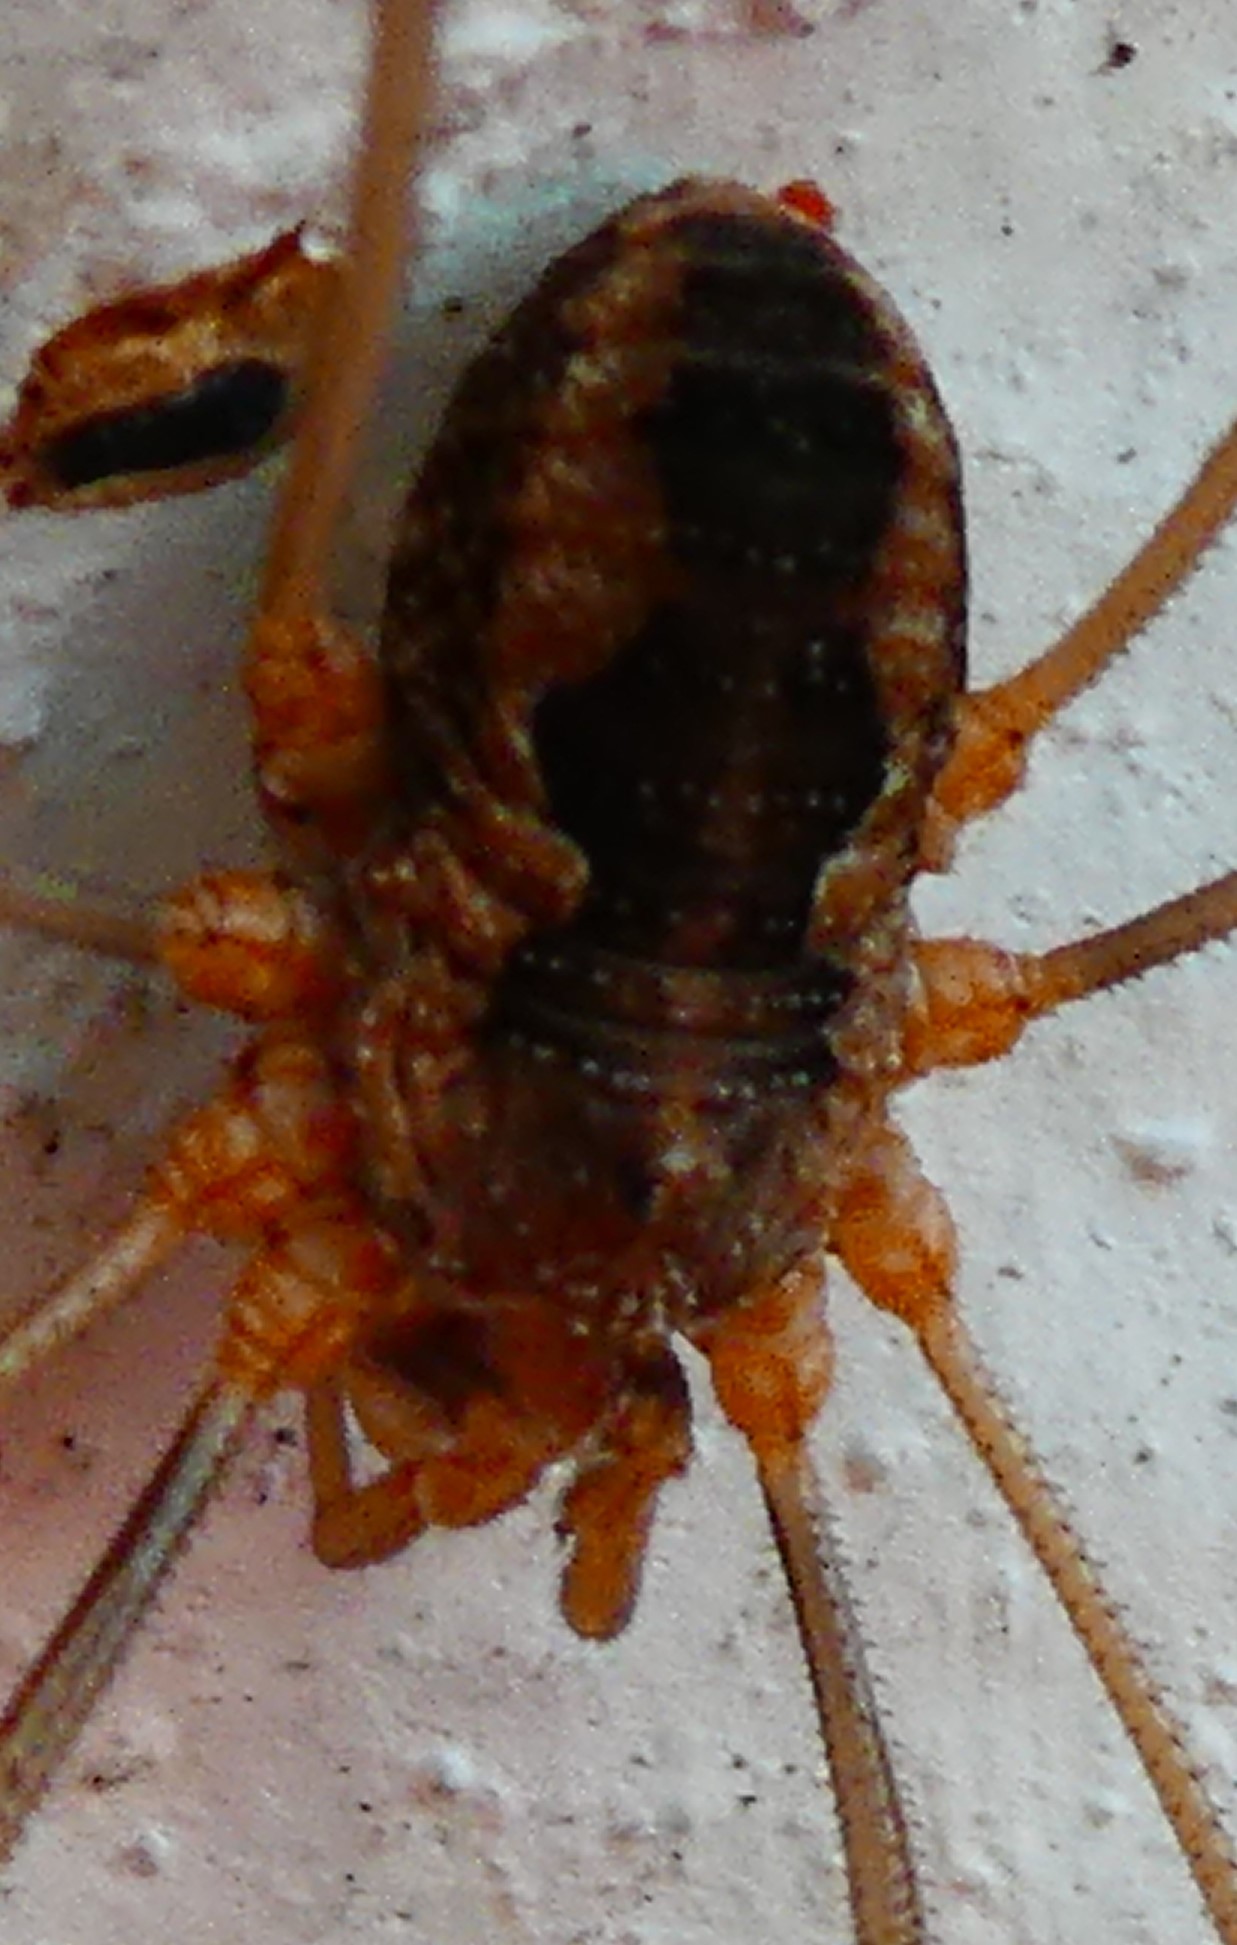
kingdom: Animalia
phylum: Arthropoda
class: Arachnida
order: Opiliones
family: Phalangiidae
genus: Phalangium
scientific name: Phalangium opilio
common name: Daddy longleg
